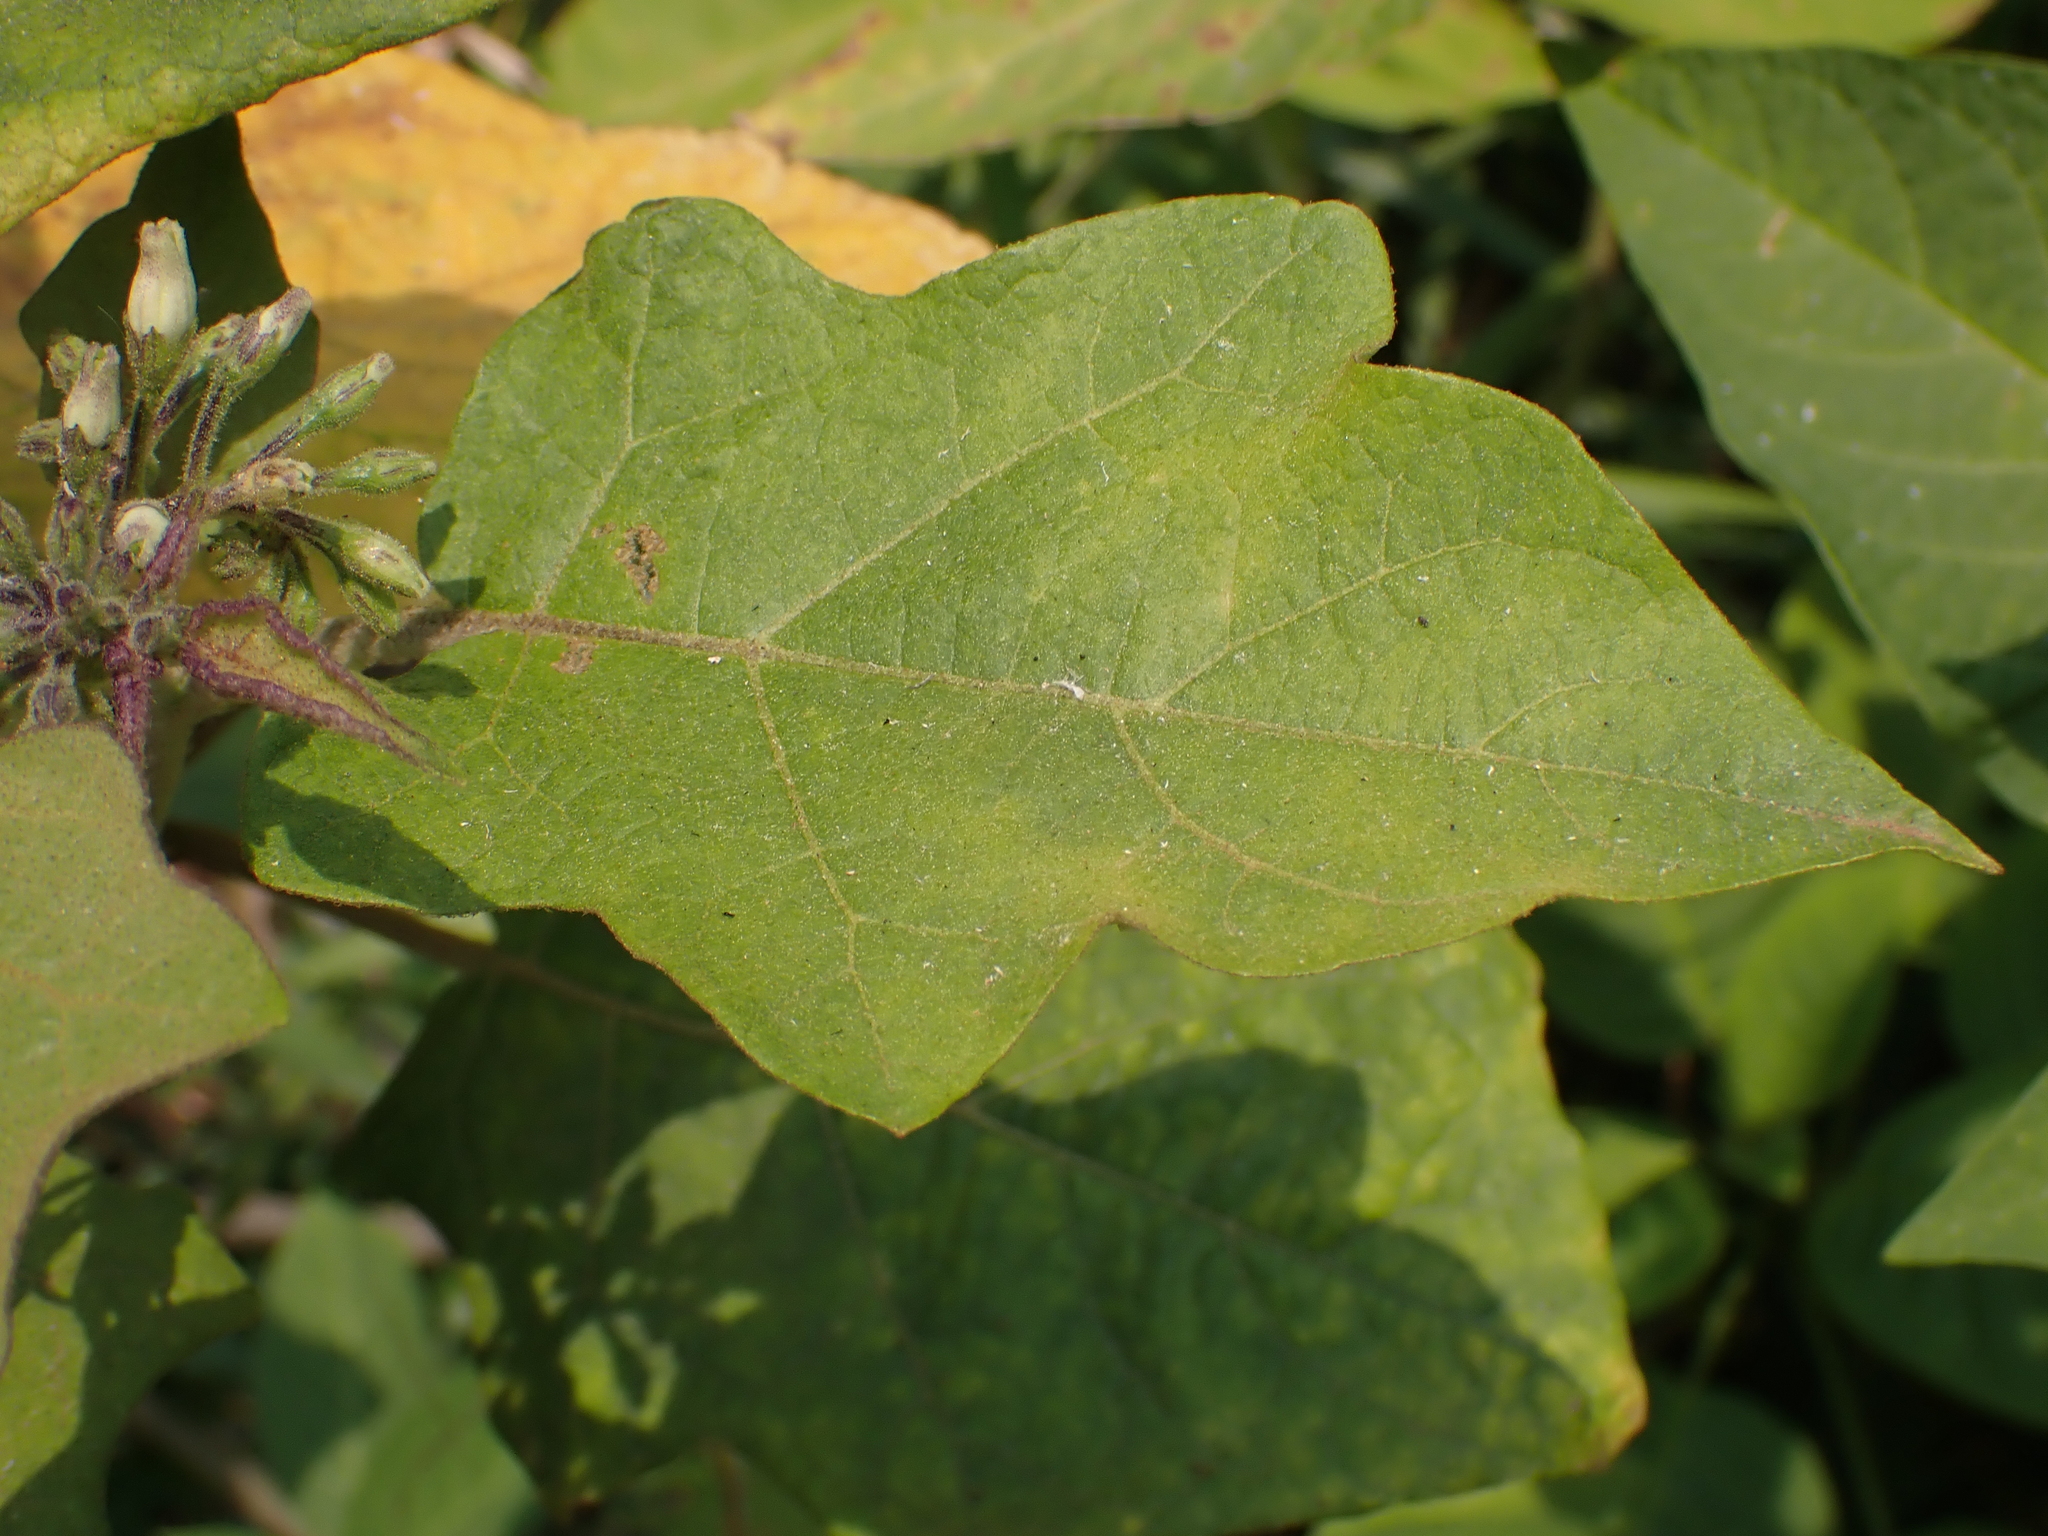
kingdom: Plantae
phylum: Tracheophyta
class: Magnoliopsida
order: Solanales
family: Solanaceae
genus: Solanum
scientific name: Solanum torvum
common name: Turkey berry
